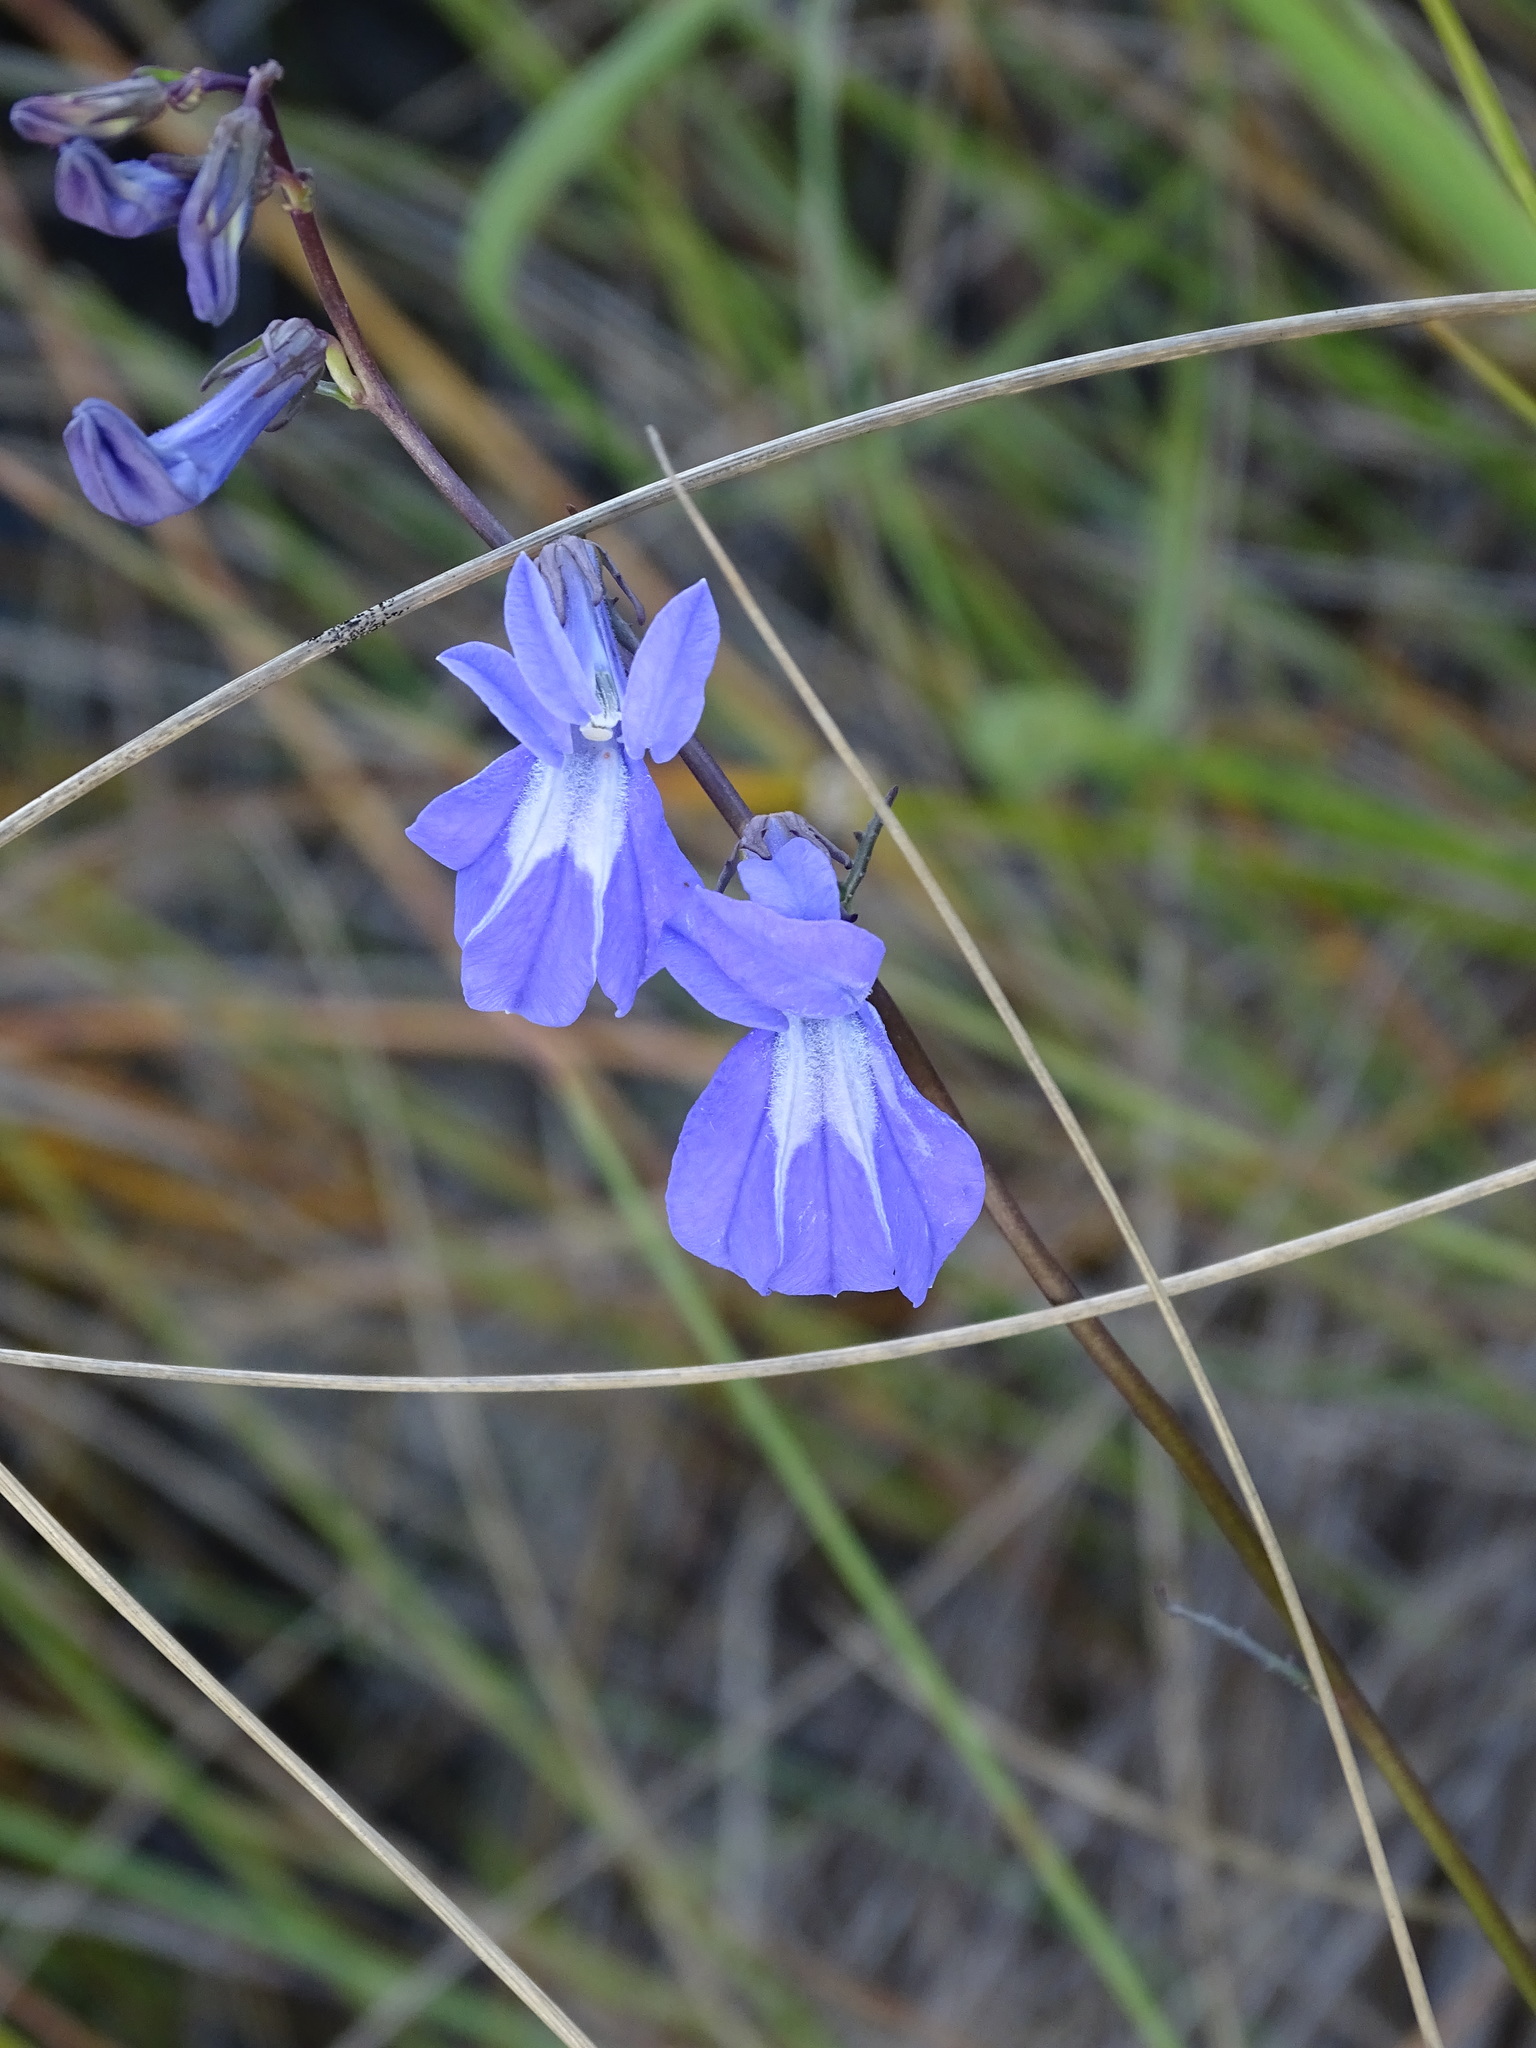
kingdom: Plantae
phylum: Tracheophyta
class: Magnoliopsida
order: Asterales
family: Campanulaceae
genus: Lobelia
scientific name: Lobelia glandulosa
